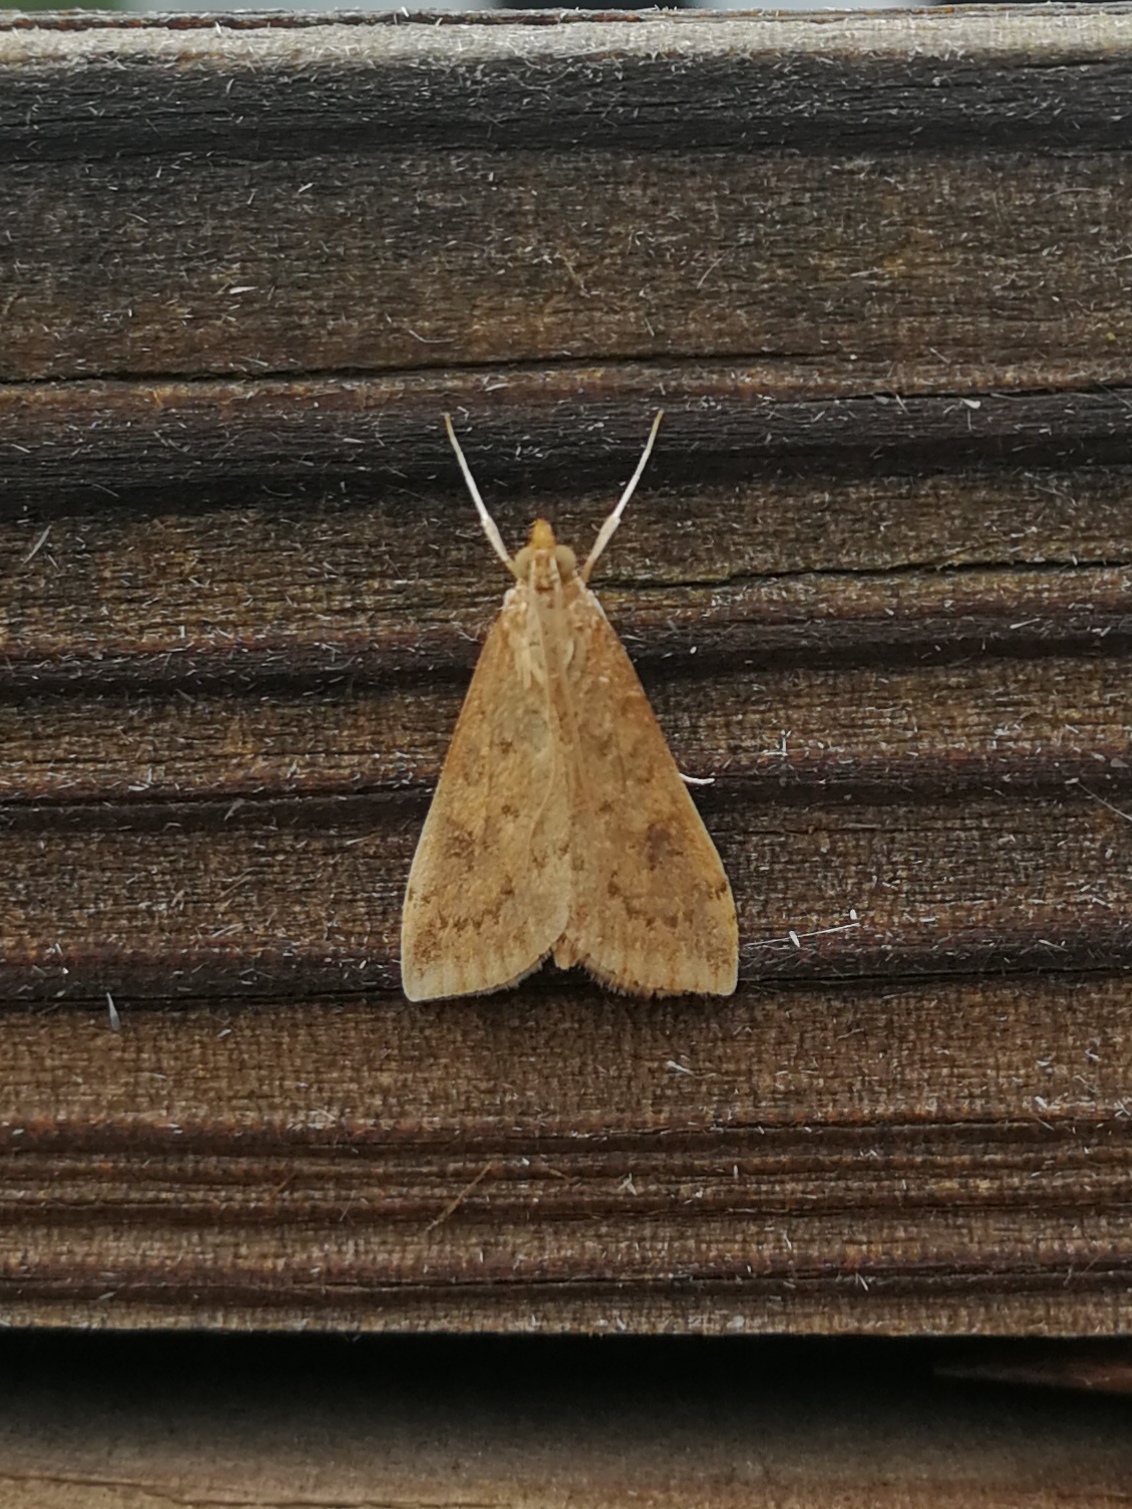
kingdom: Animalia
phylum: Arthropoda
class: Insecta
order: Lepidoptera
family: Crambidae
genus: Udea
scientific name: Udea ferrugalis
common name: Rusty dot
